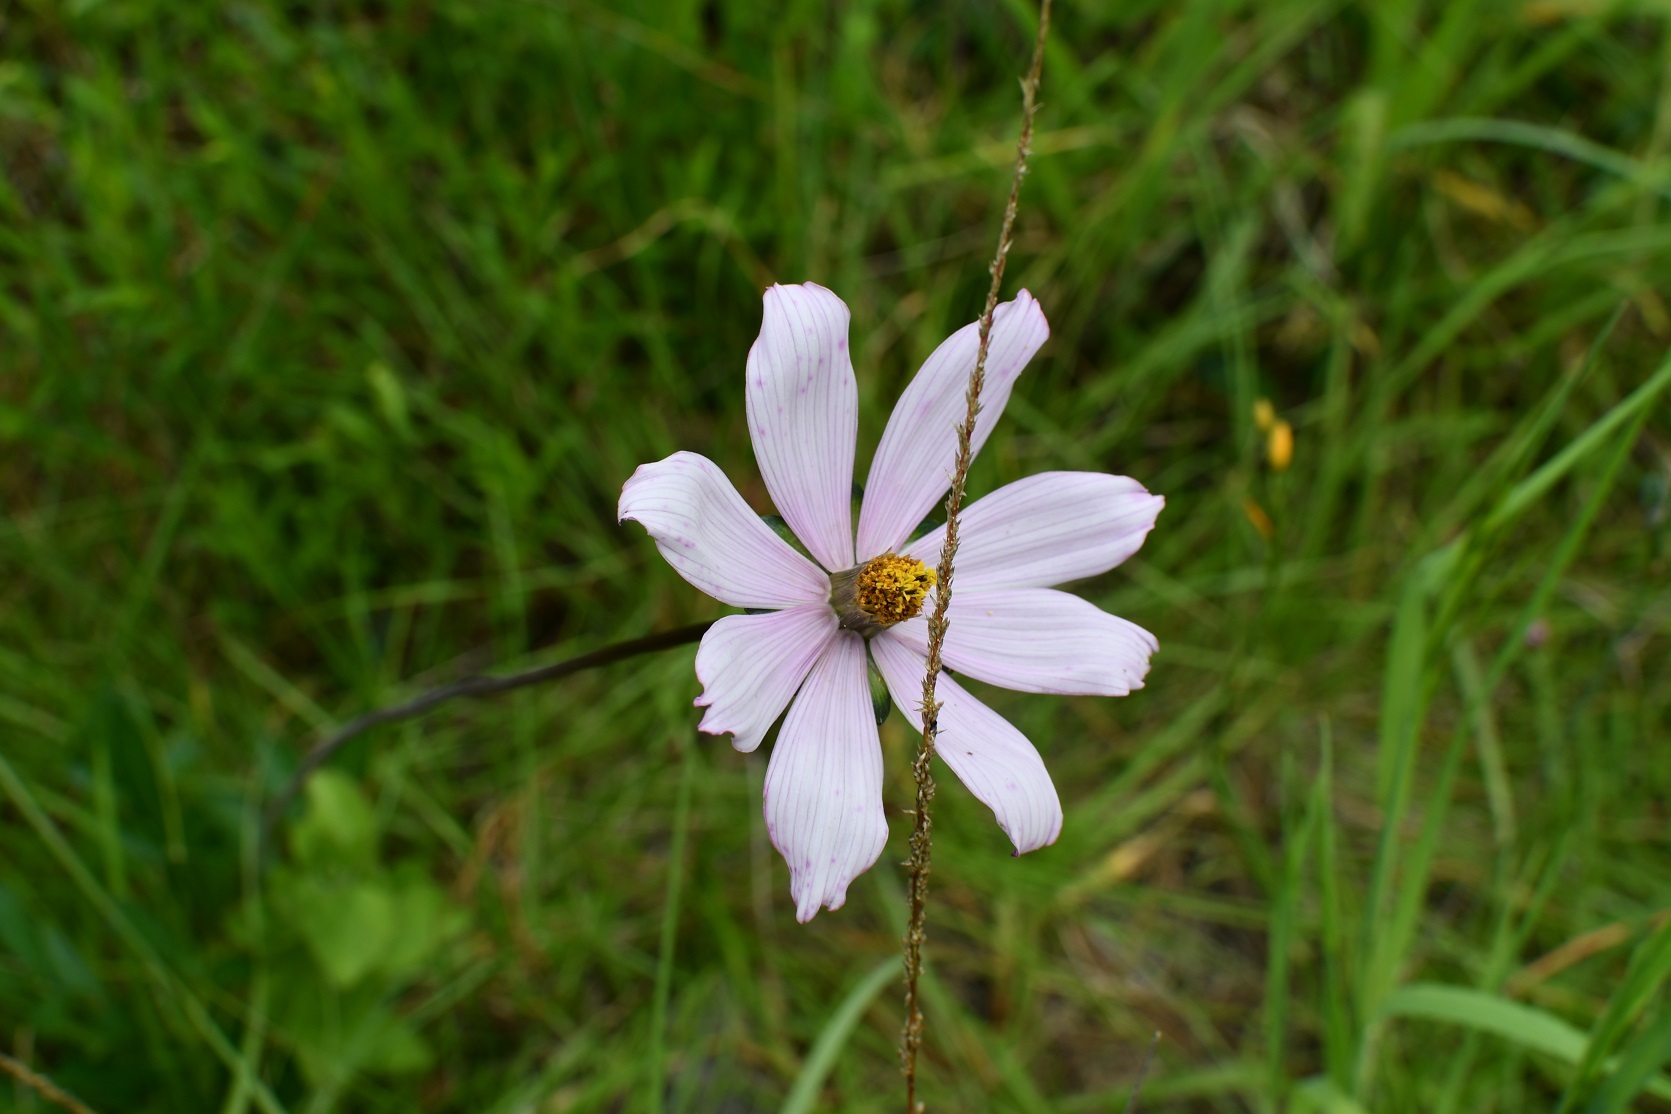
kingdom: Plantae
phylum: Tracheophyta
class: Magnoliopsida
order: Asterales
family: Asteraceae
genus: Cosmos
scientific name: Cosmos diversifolius
